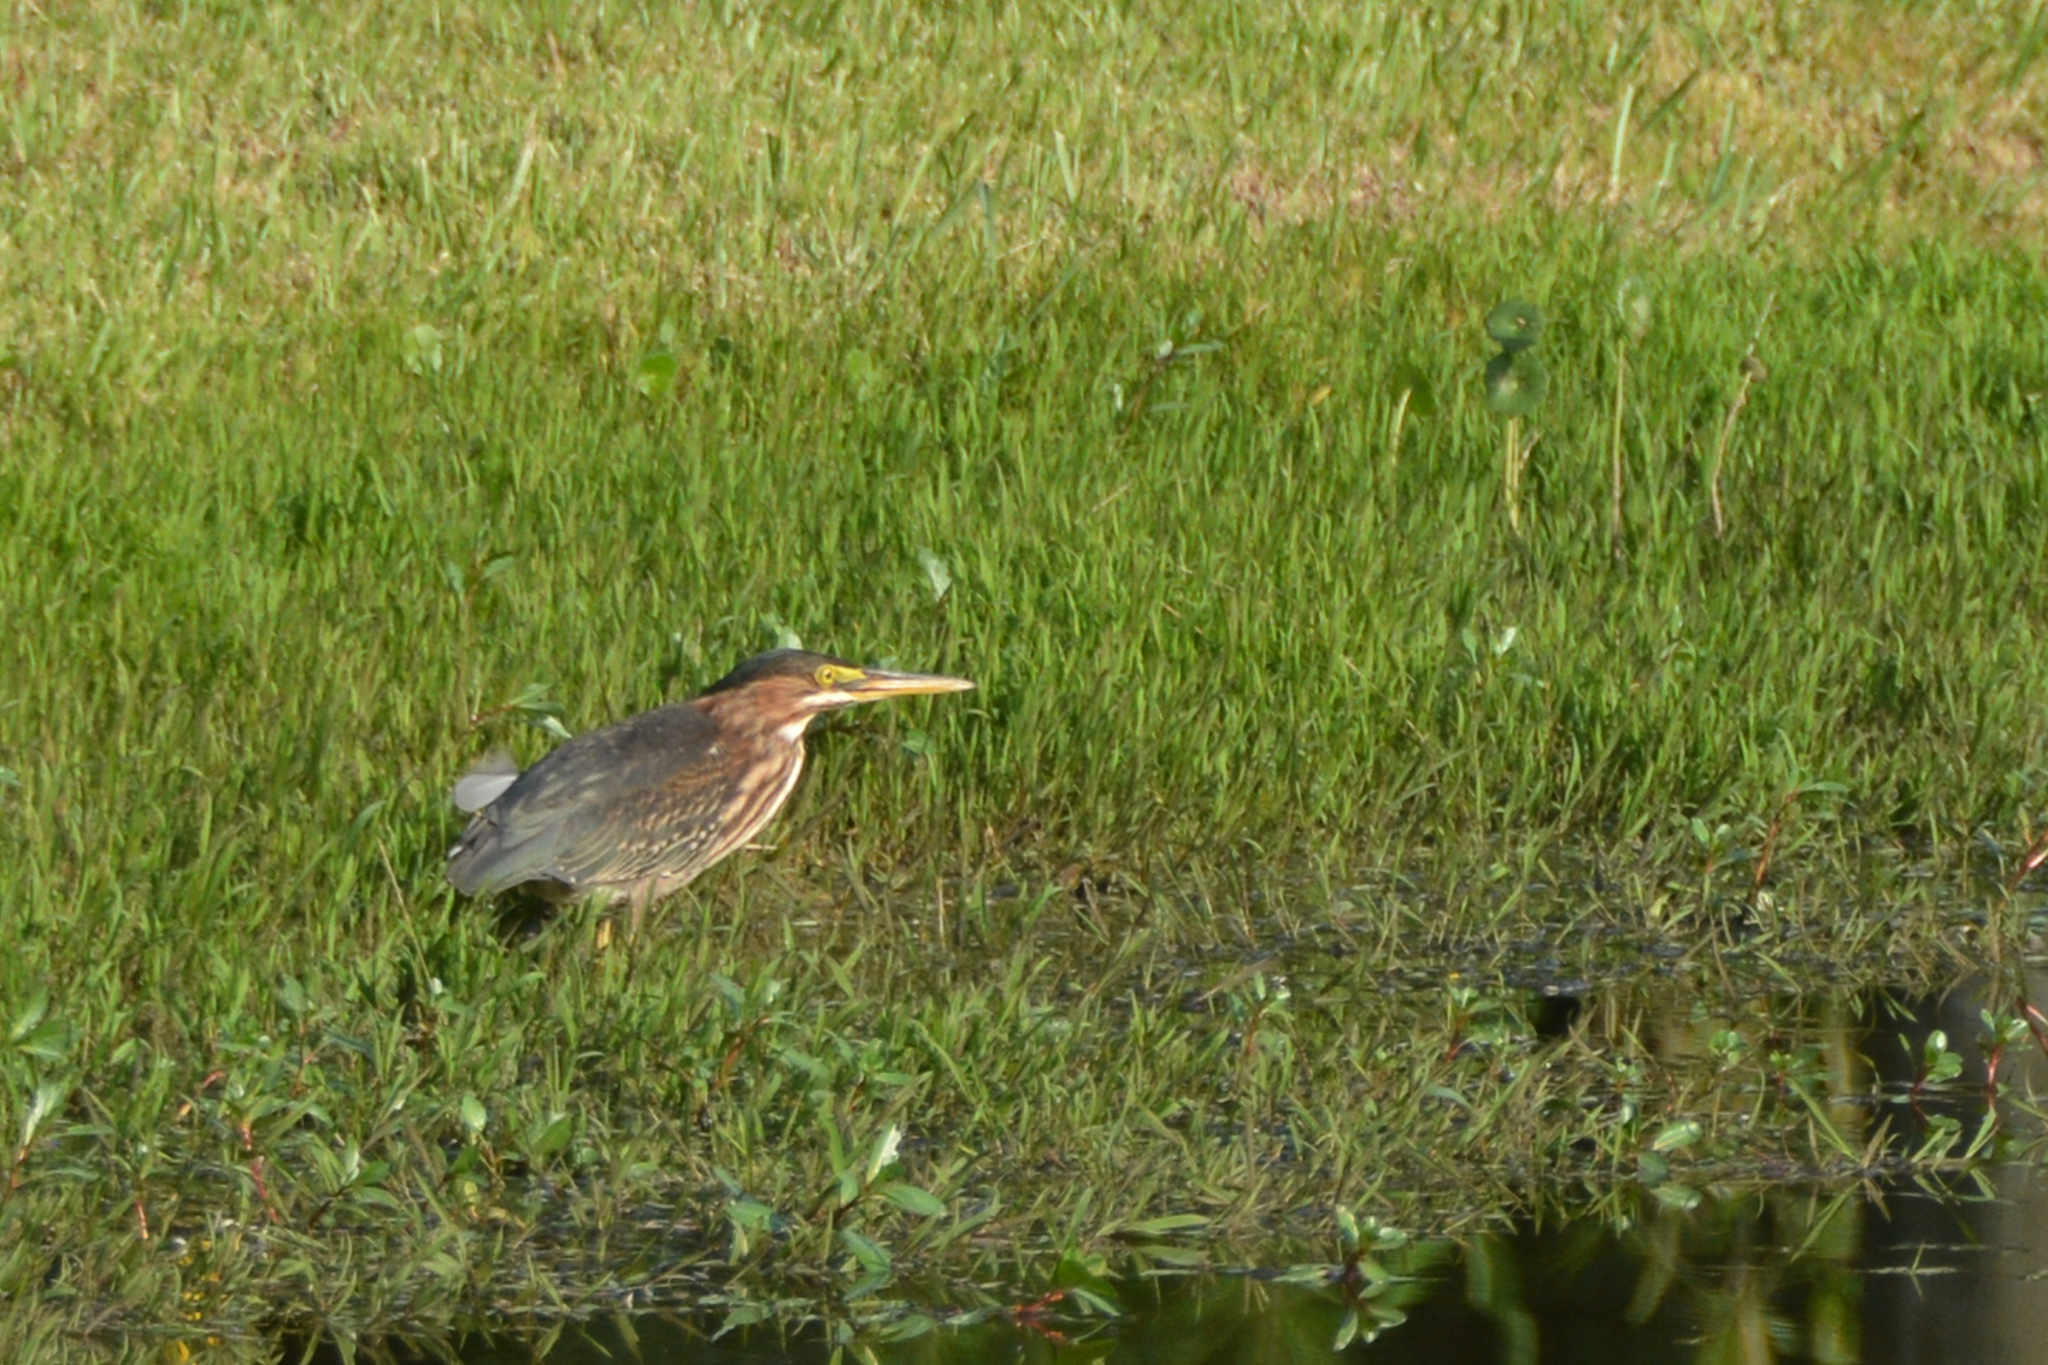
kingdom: Animalia
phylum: Chordata
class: Aves
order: Pelecaniformes
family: Ardeidae
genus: Butorides
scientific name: Butorides virescens
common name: Green heron
